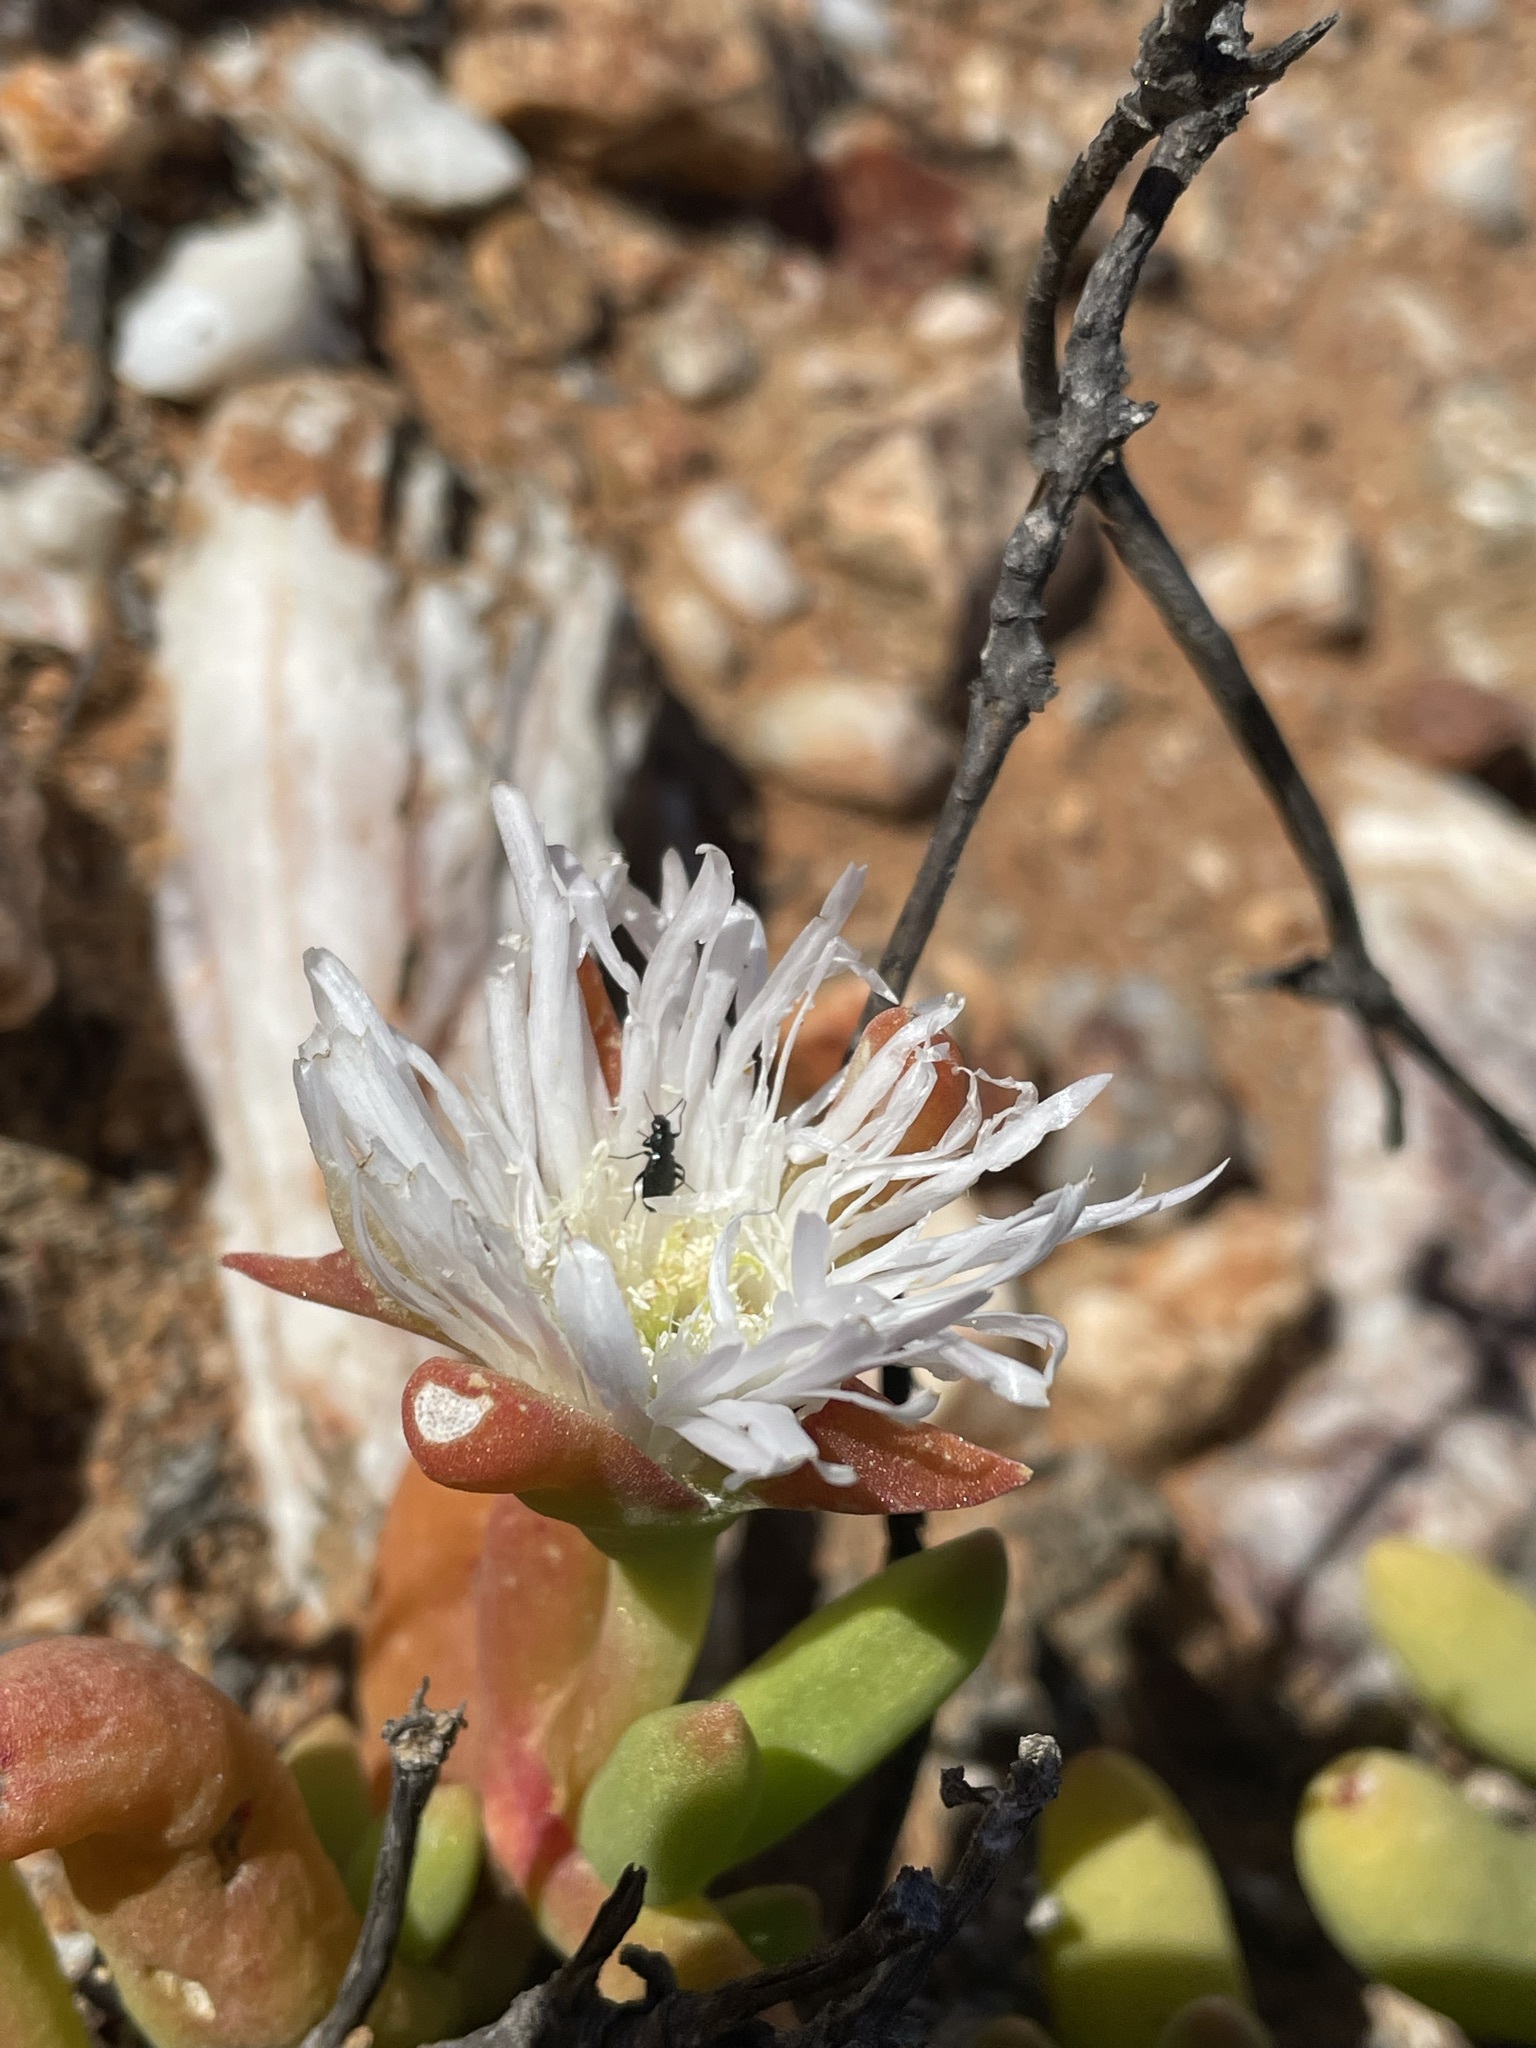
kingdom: Plantae
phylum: Tracheophyta
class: Magnoliopsida
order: Caryophyllales
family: Aizoaceae
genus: Jacobsenia
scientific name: Jacobsenia kolbei
